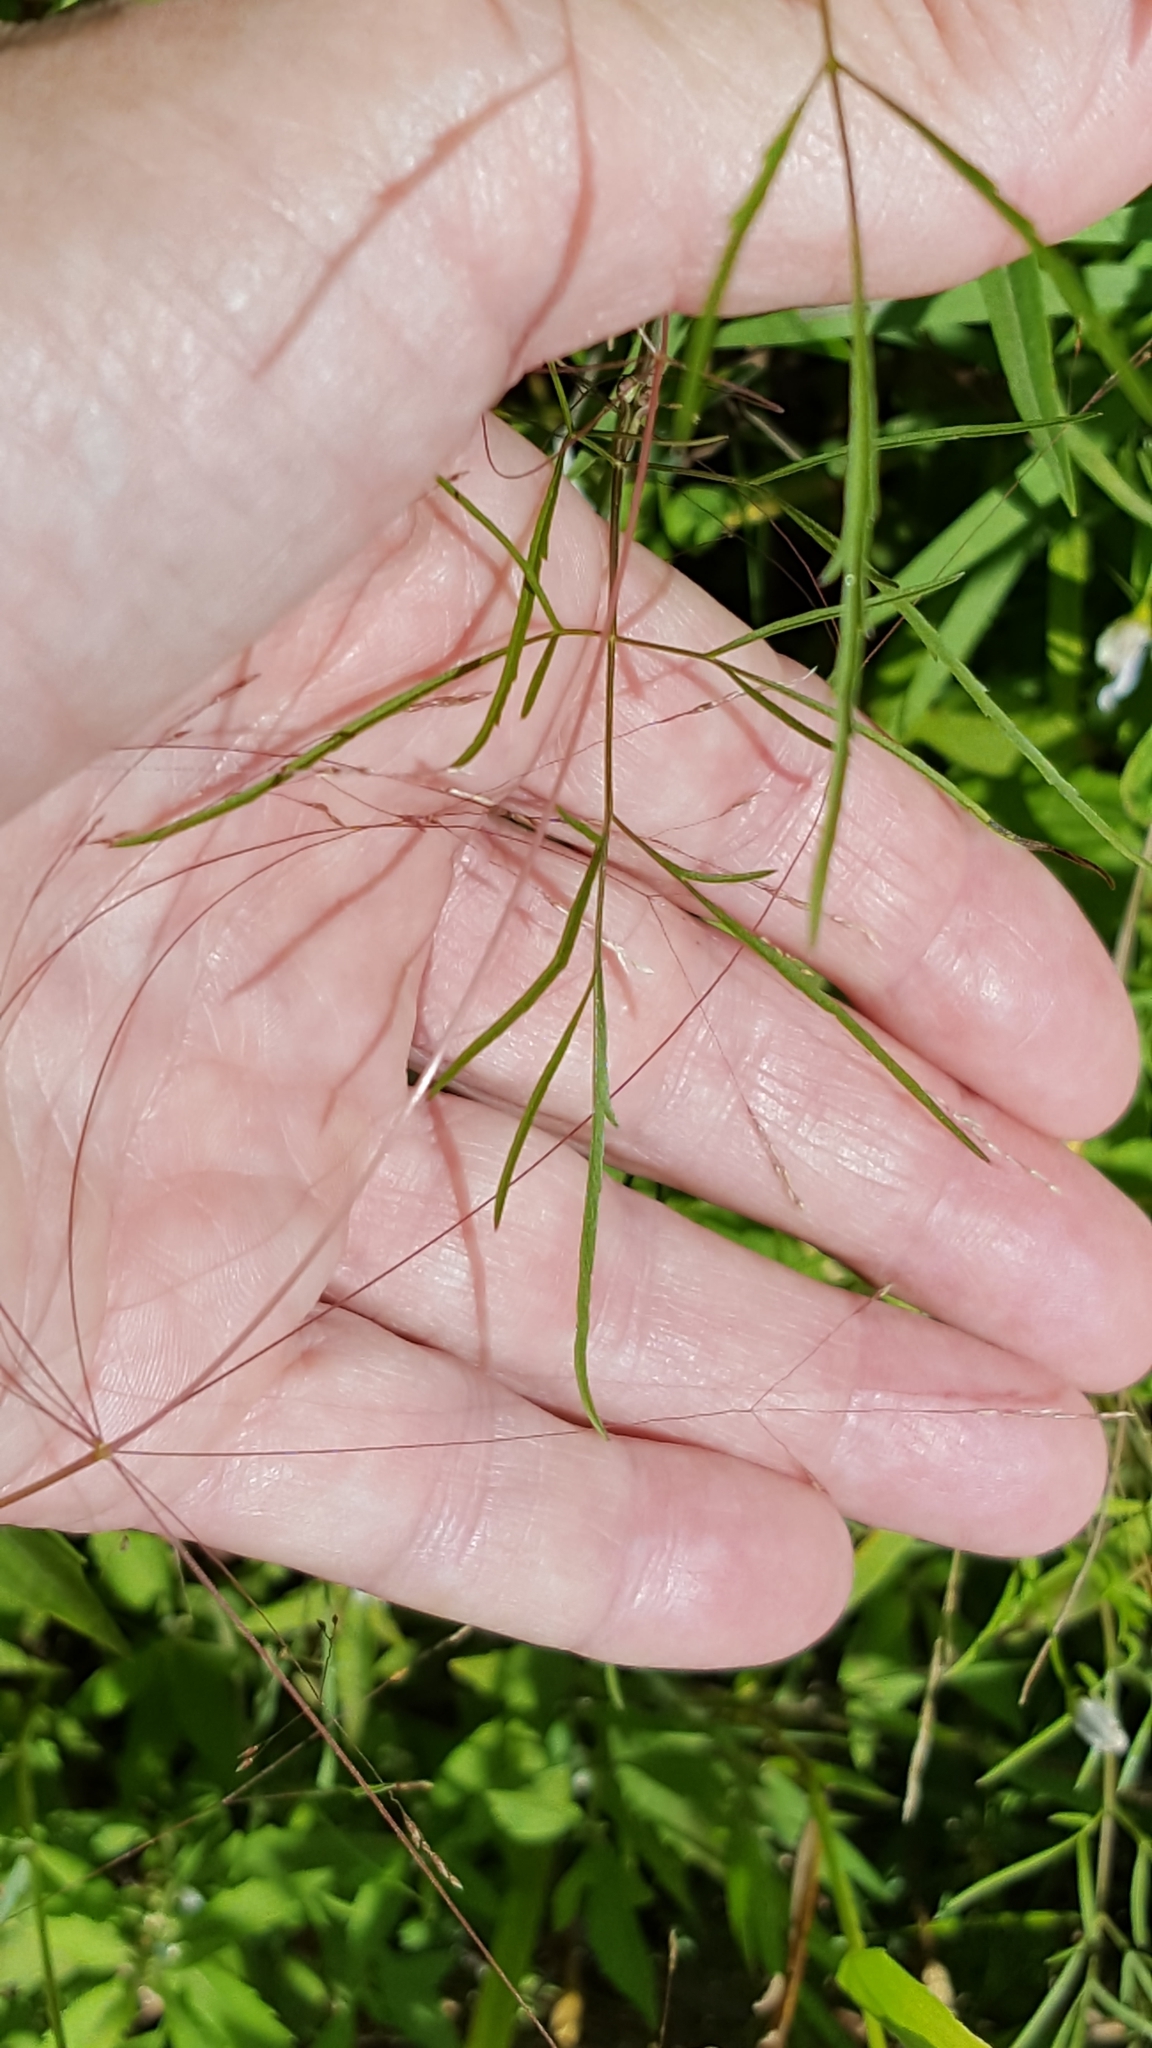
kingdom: Plantae
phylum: Tracheophyta
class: Magnoliopsida
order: Apiales
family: Apiaceae
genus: Cicuta
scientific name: Cicuta bulbifera
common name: Bulb-bearing water-hemlock
